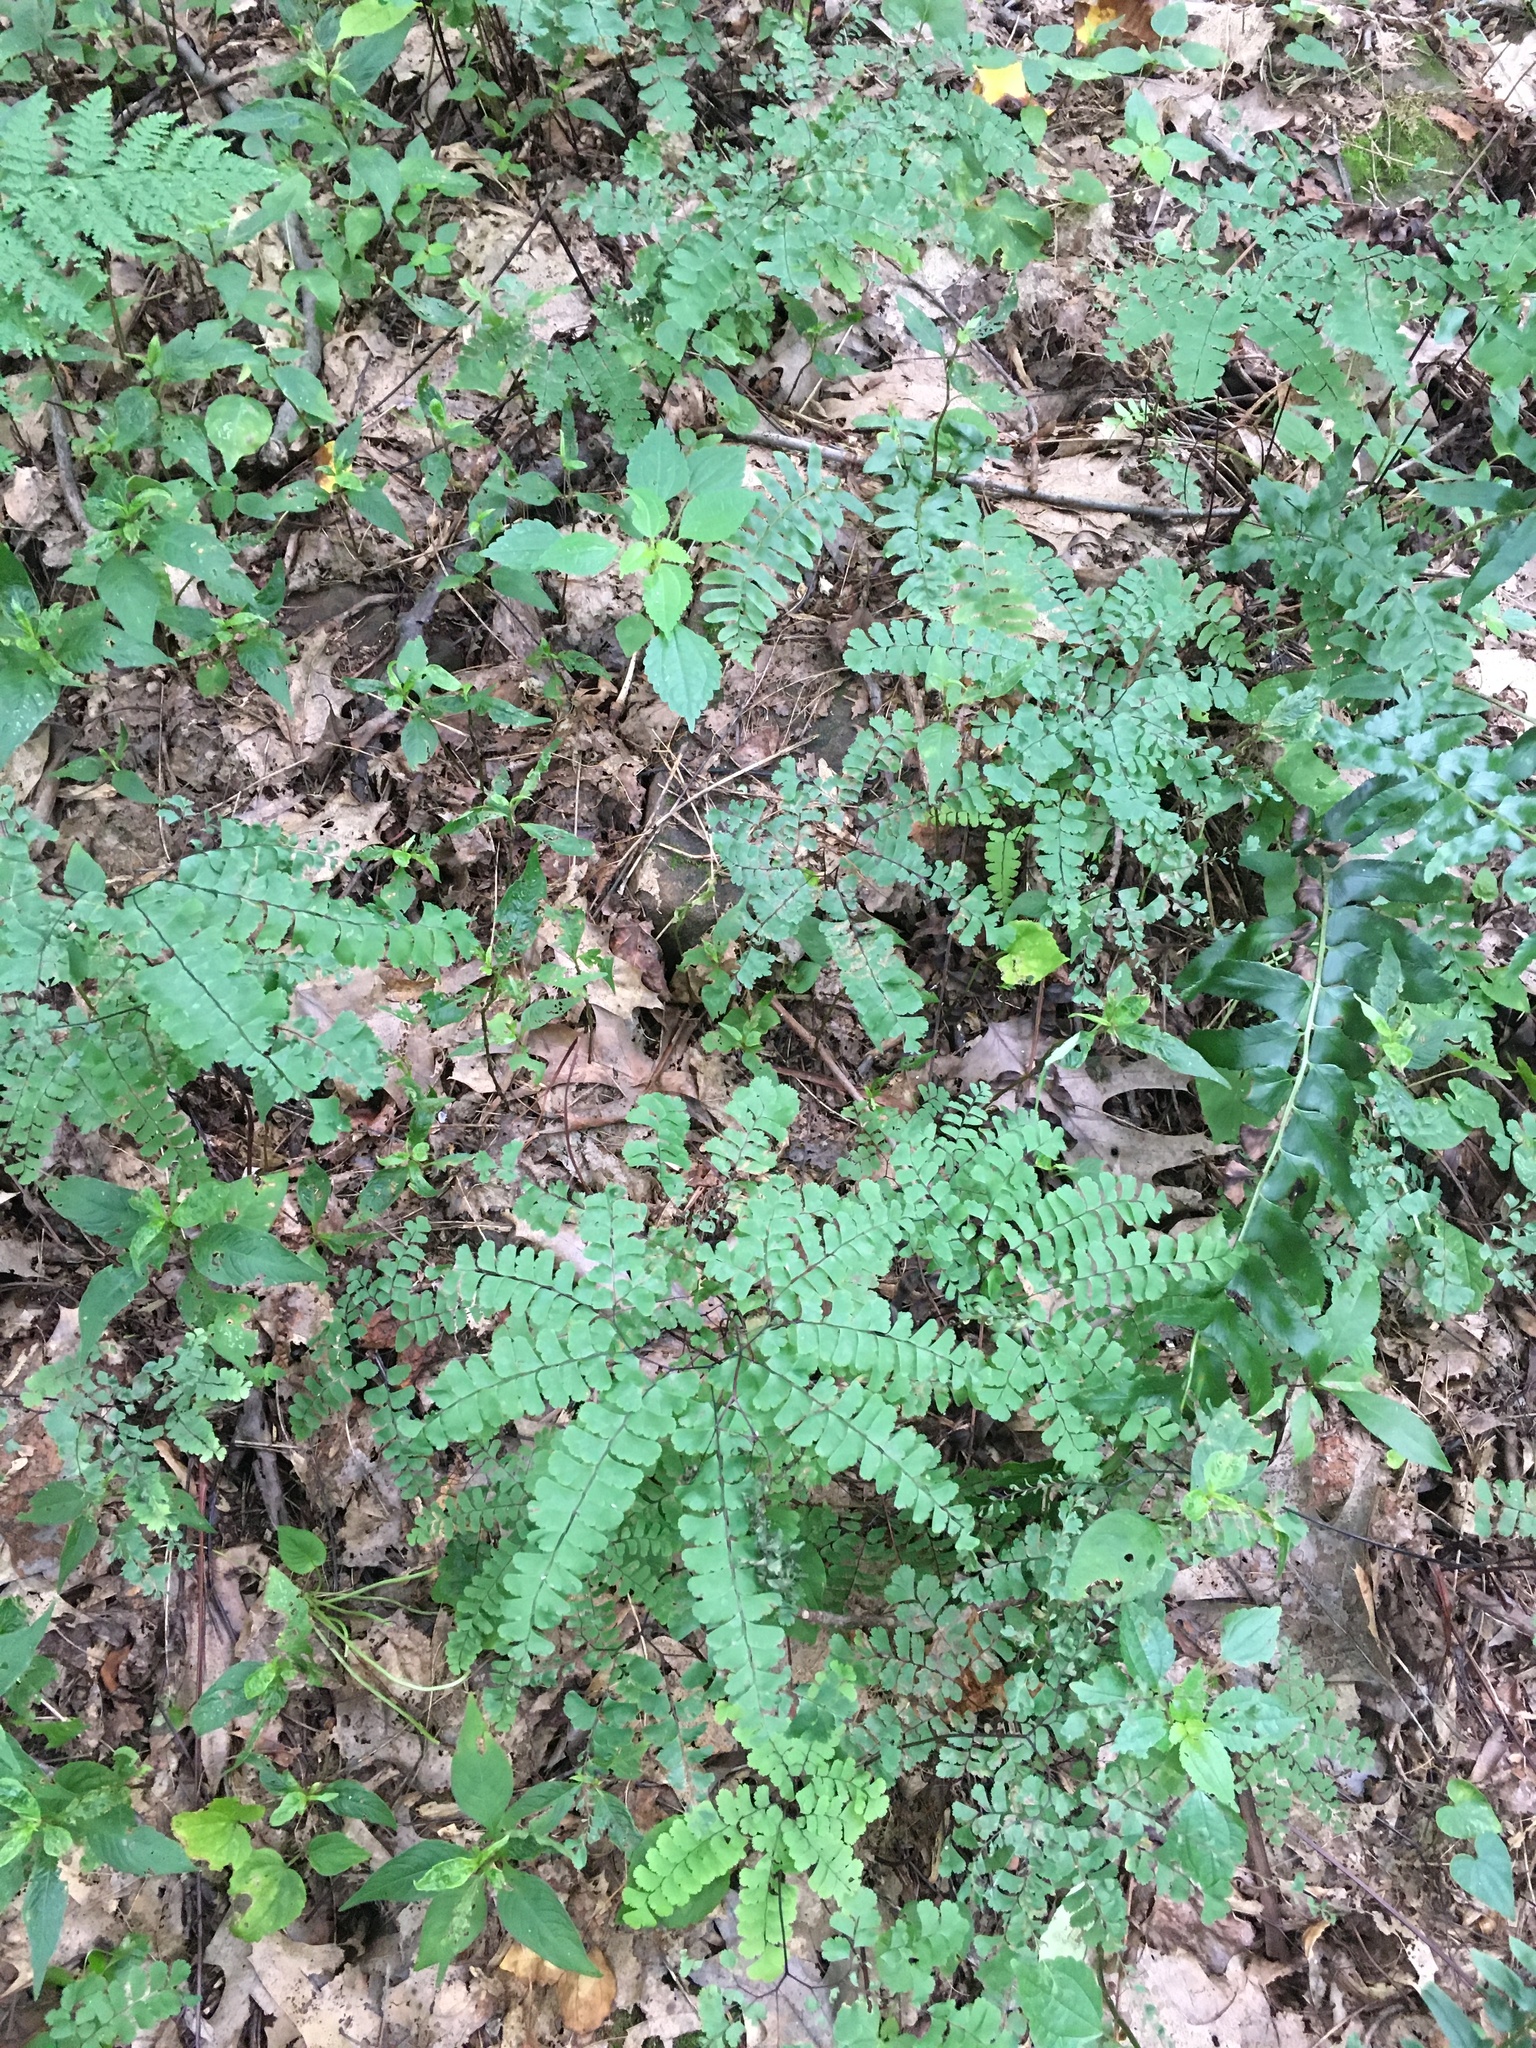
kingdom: Plantae
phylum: Tracheophyta
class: Polypodiopsida
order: Polypodiales
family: Pteridaceae
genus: Adiantum
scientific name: Adiantum pedatum
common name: Five-finger fern
